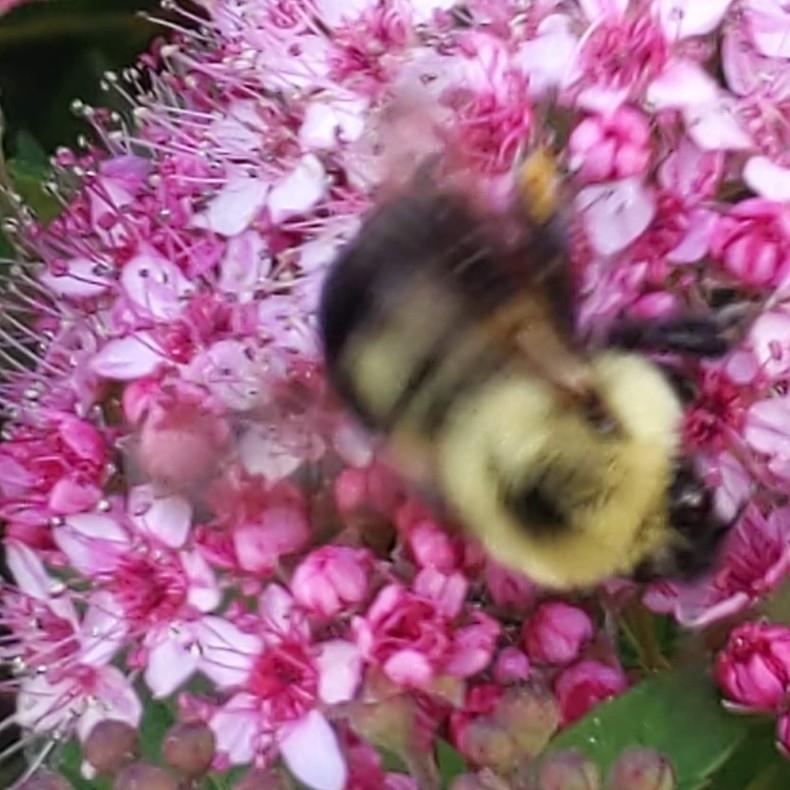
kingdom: Animalia
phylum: Arthropoda
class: Insecta
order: Hymenoptera
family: Apidae
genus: Bombus
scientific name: Bombus bimaculatus
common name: Two-spotted bumble bee
